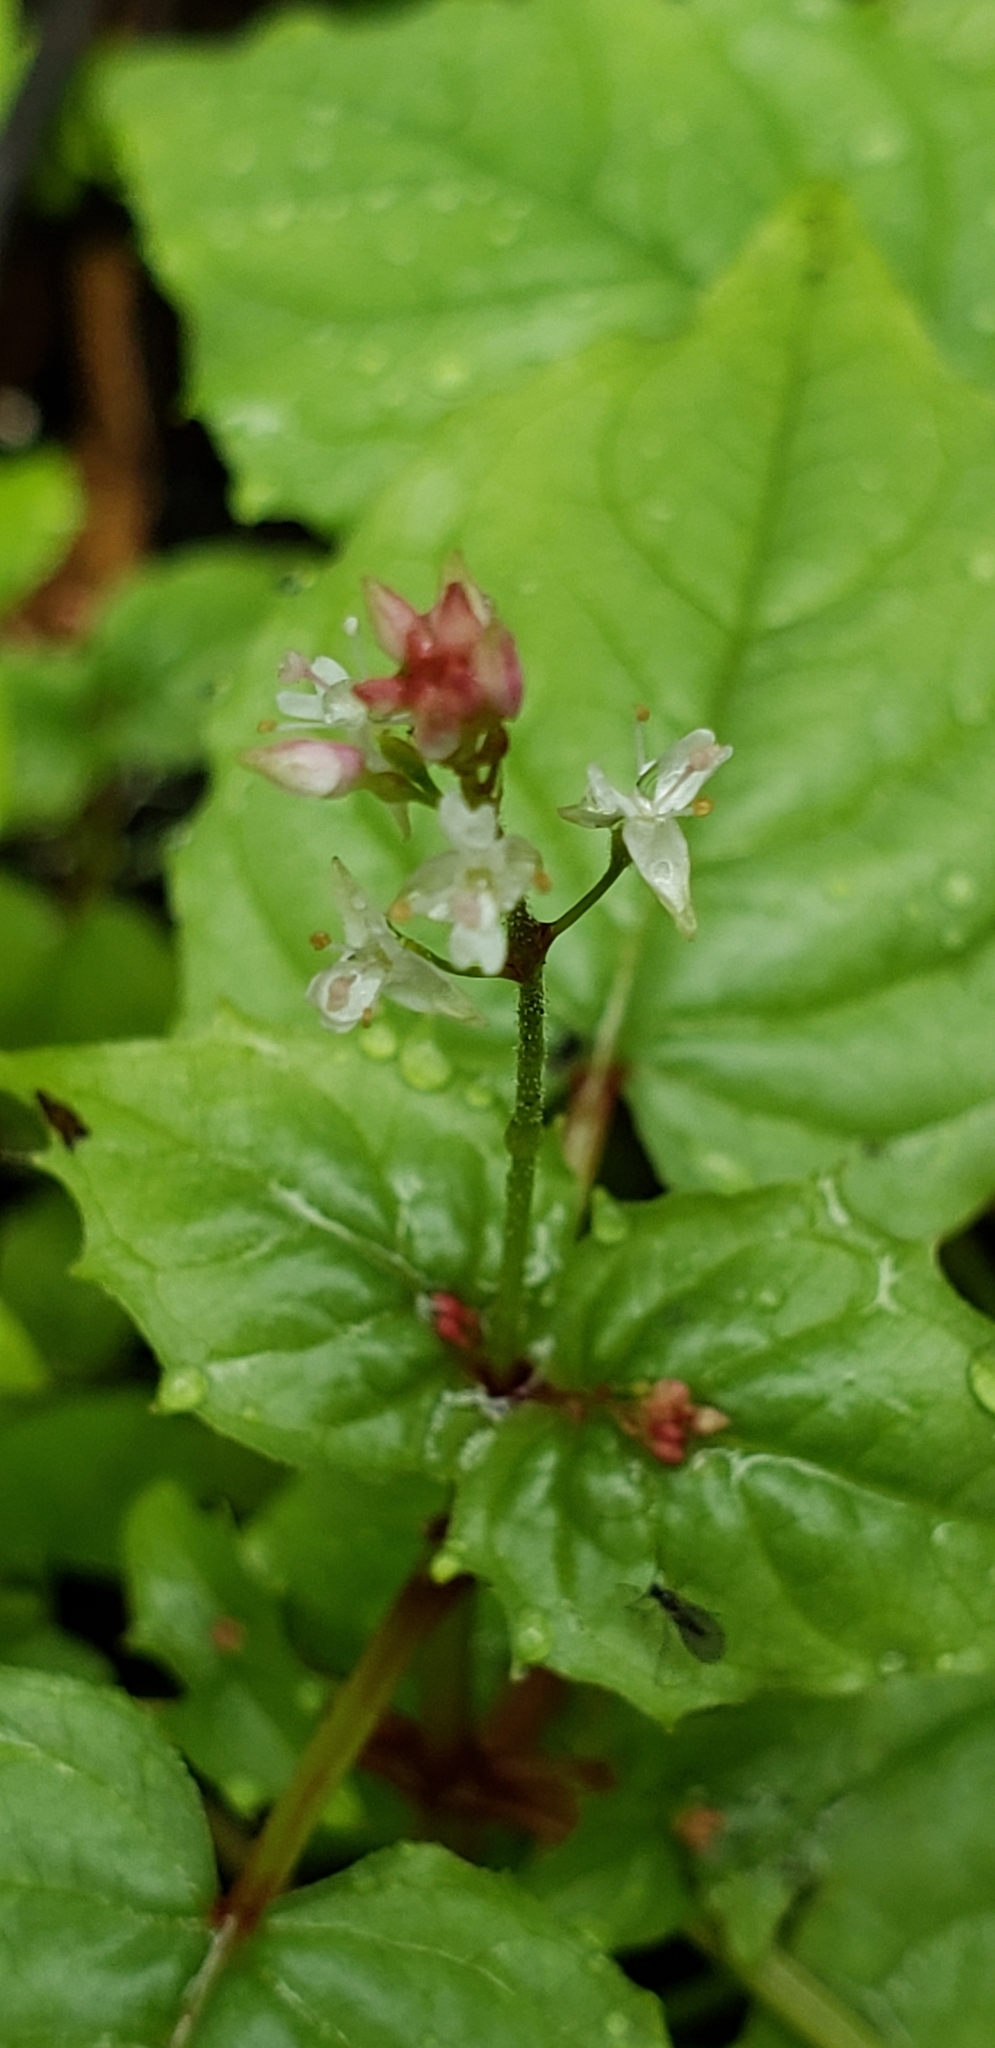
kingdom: Plantae
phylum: Tracheophyta
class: Magnoliopsida
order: Myrtales
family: Onagraceae
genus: Circaea
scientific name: Circaea alpina
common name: Alpine enchanter's-nightshade
